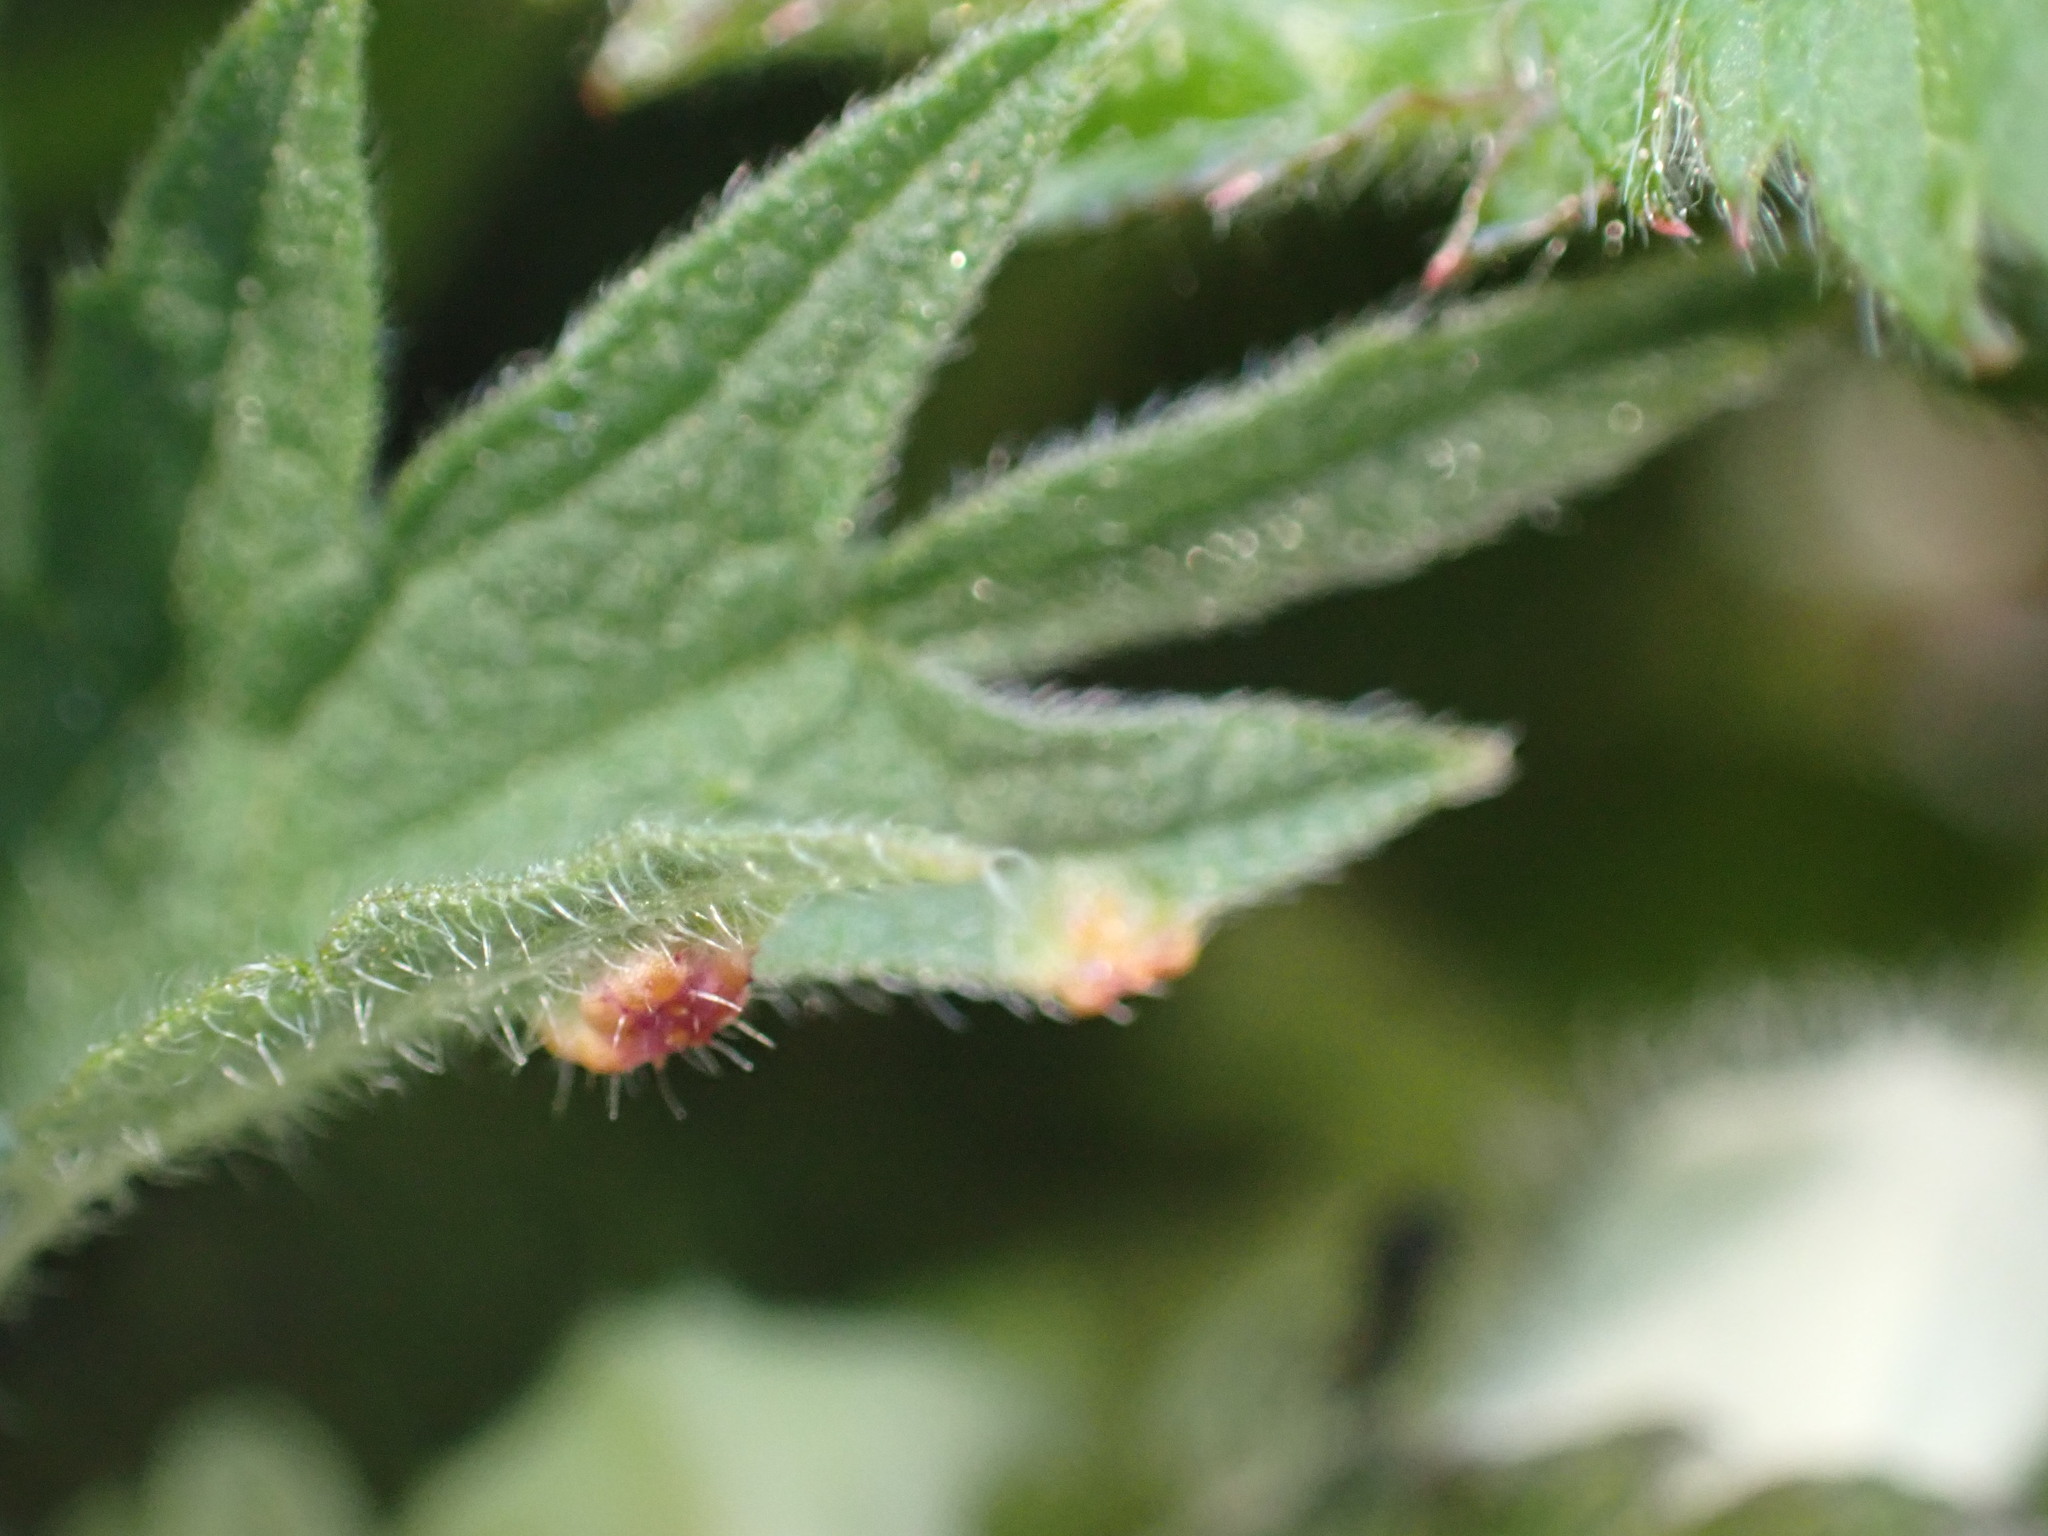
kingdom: Fungi
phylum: Basidiomycota
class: Pucciniomycetes
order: Pucciniales
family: Pucciniaceae
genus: Puccinia
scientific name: Puccinia urticata
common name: Nettle clustercup rust fungus
